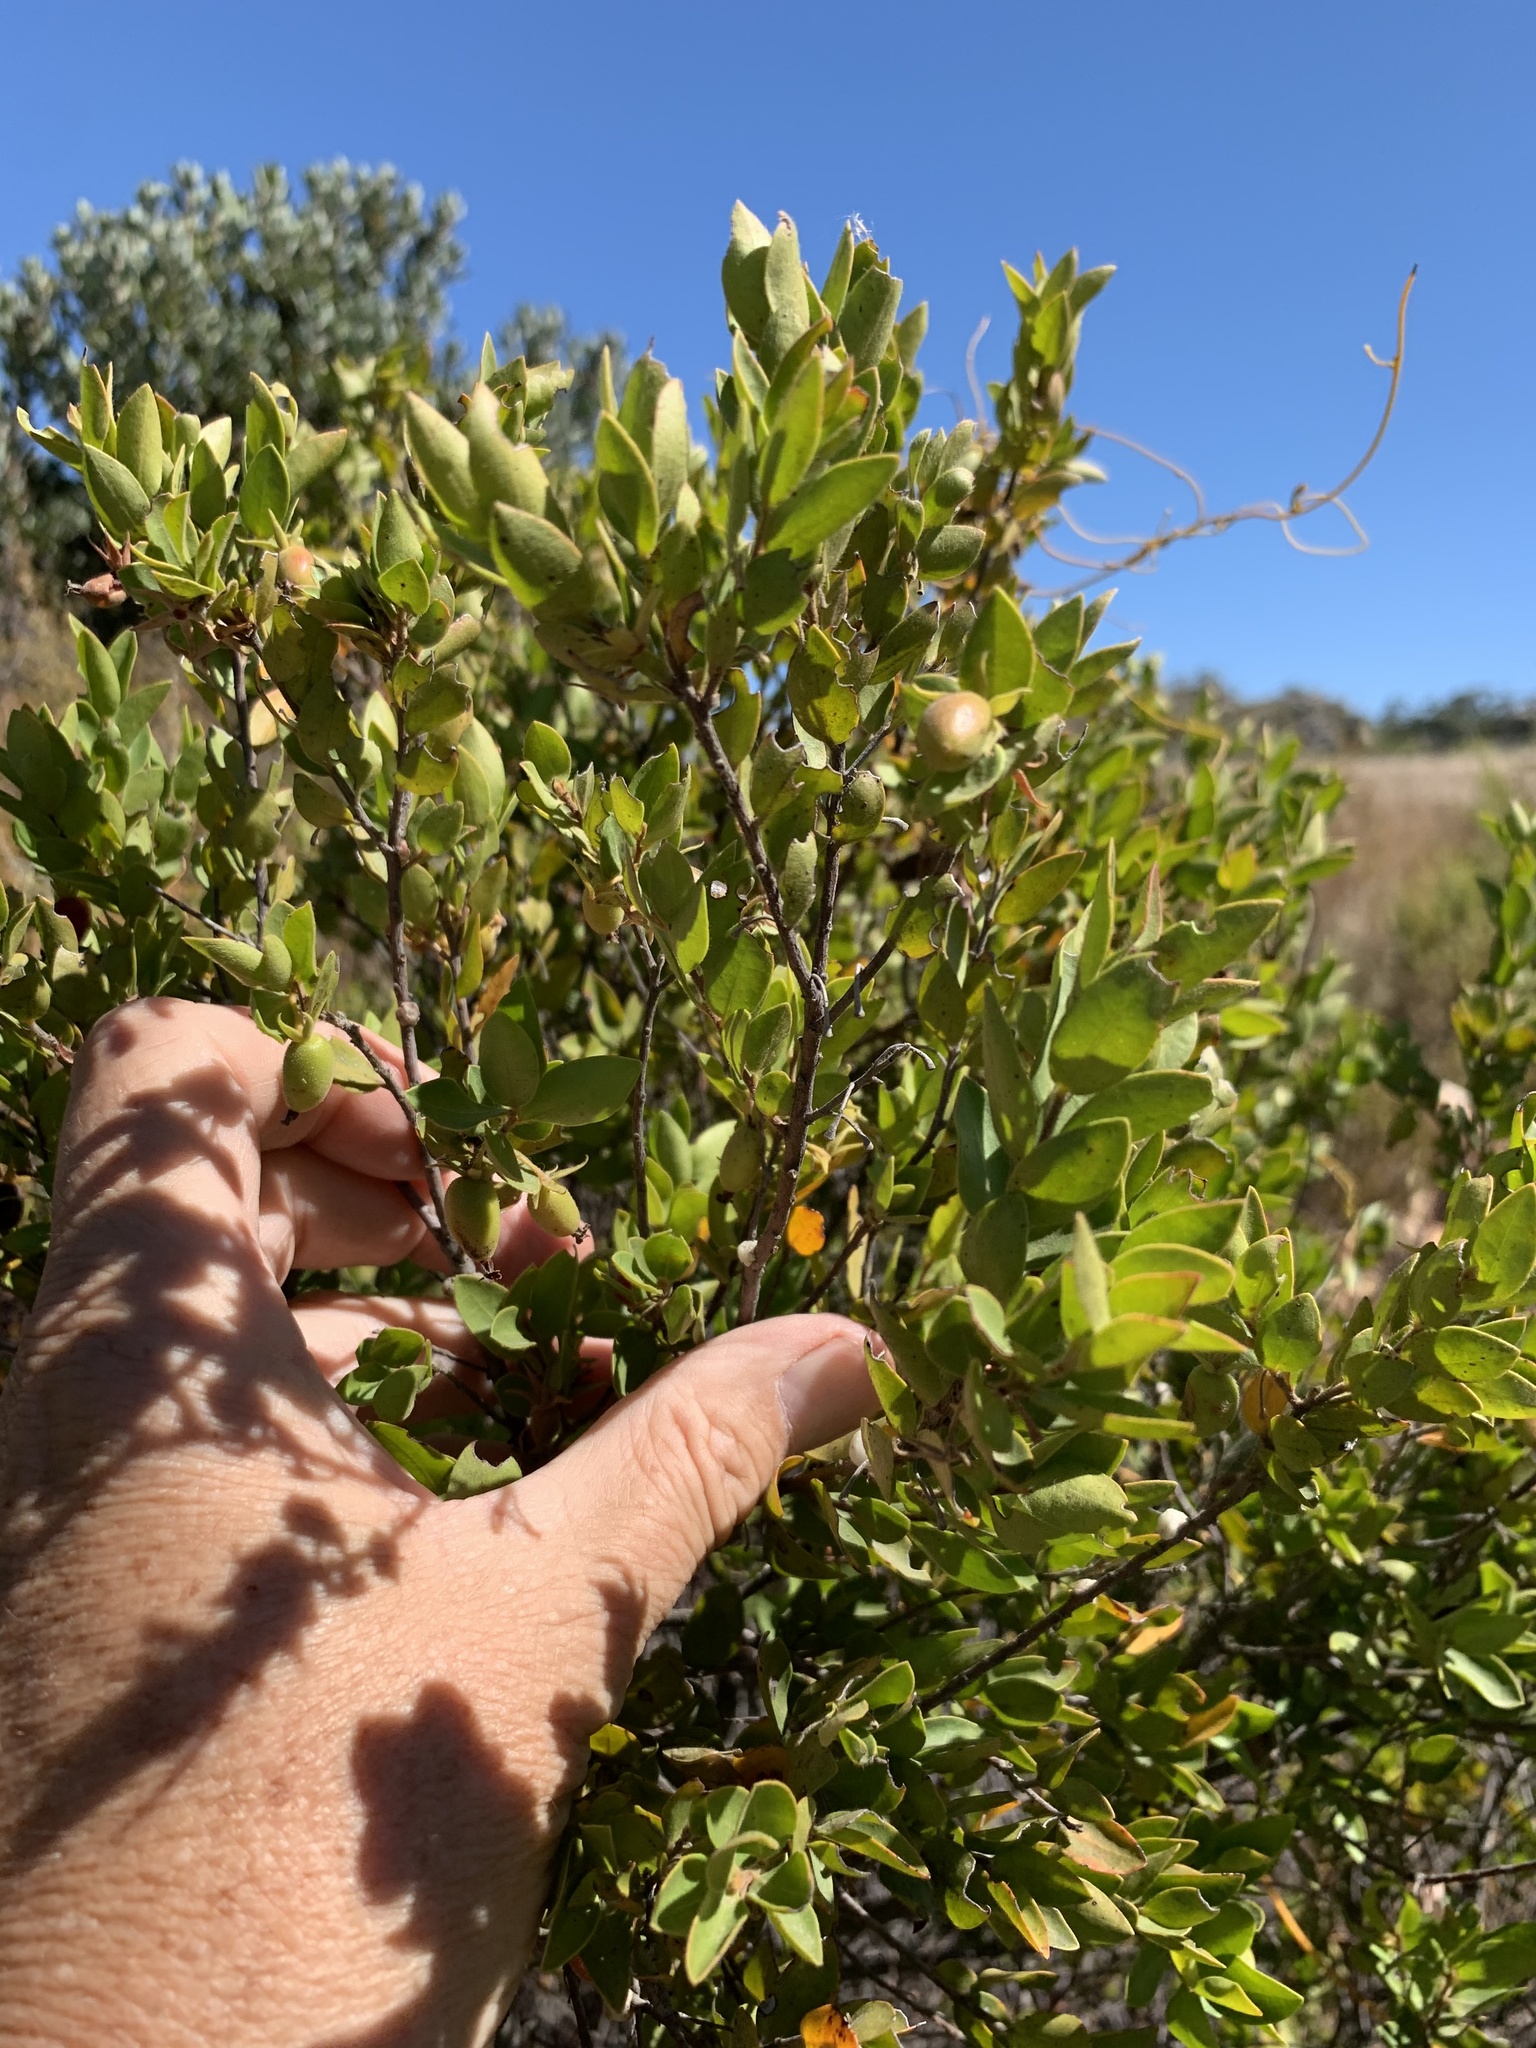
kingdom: Plantae
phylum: Tracheophyta
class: Magnoliopsida
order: Ericales
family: Ebenaceae
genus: Diospyros
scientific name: Diospyros glabra
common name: Fynbos star apple
